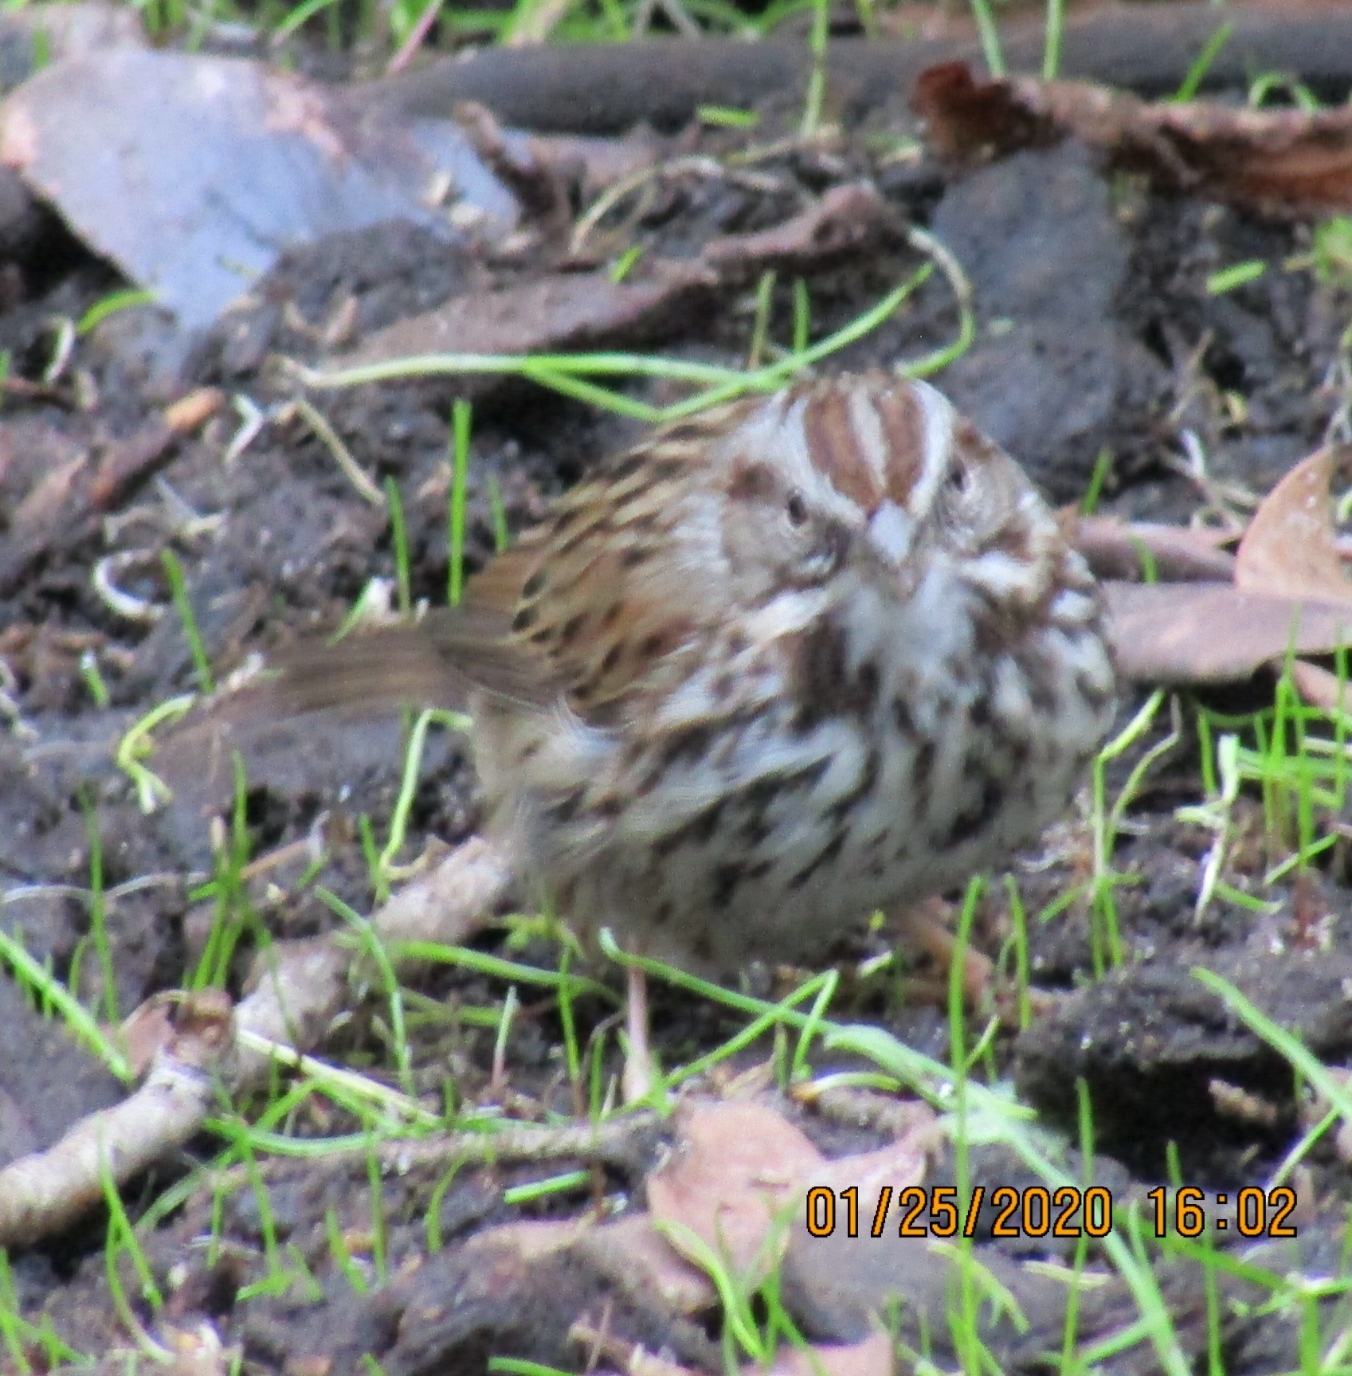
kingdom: Animalia
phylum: Chordata
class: Aves
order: Passeriformes
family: Passerellidae
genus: Melospiza
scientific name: Melospiza melodia
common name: Song sparrow
